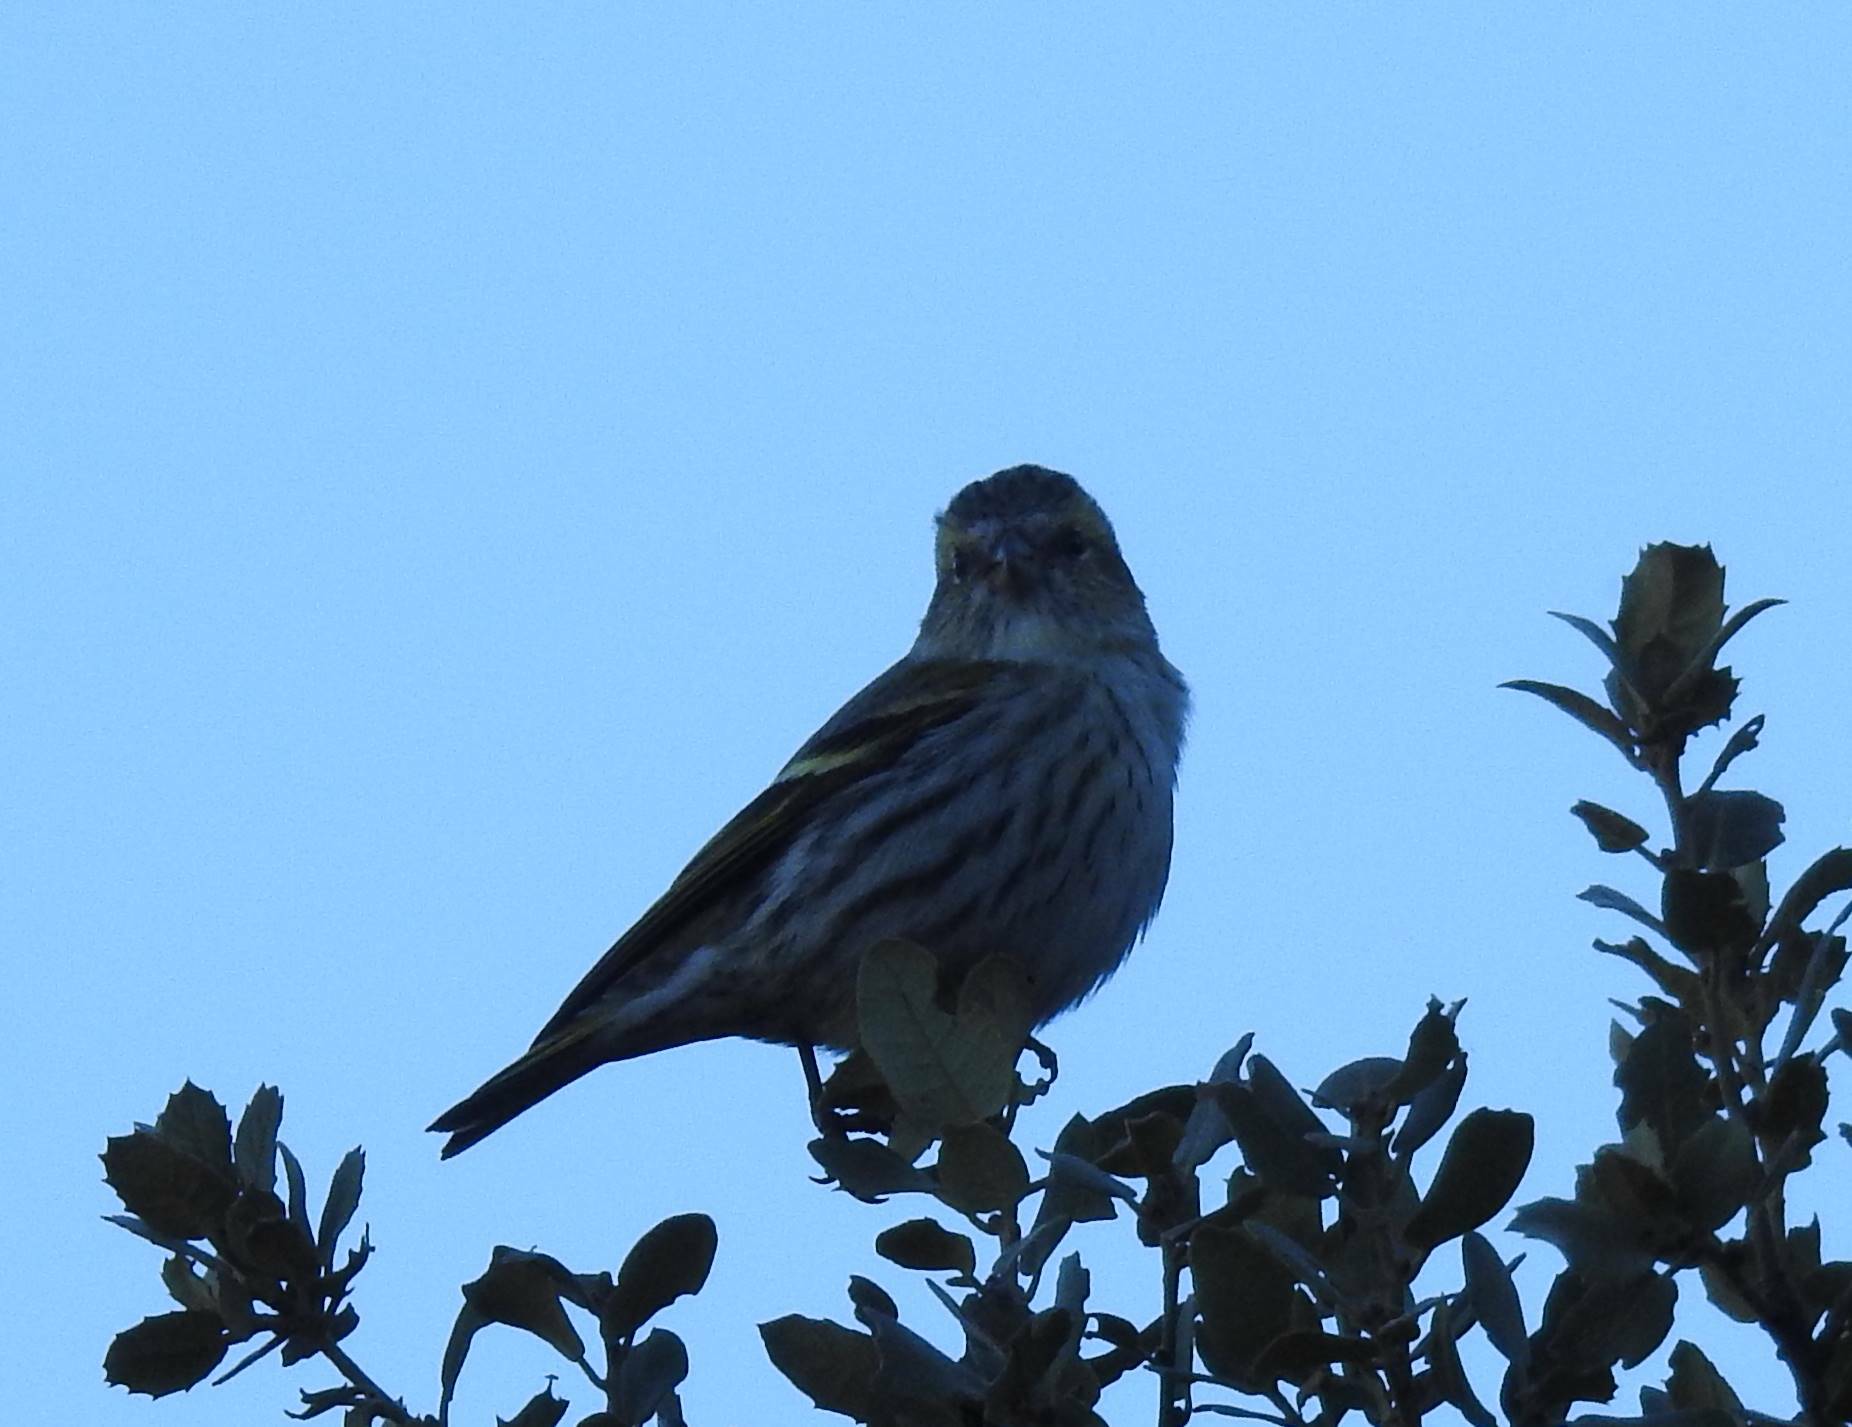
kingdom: Animalia
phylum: Chordata
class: Aves
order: Passeriformes
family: Fringillidae
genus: Spinus
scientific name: Spinus spinus
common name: Eurasian siskin
